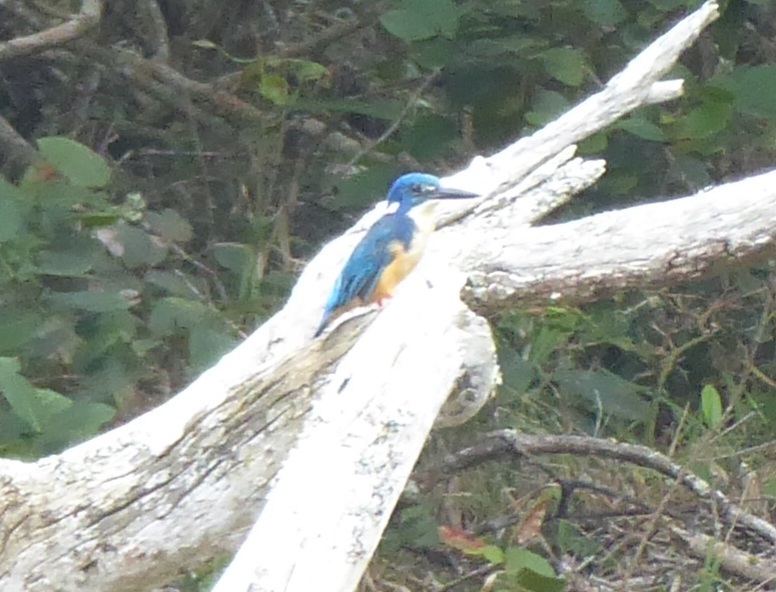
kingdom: Animalia
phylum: Chordata
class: Aves
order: Coraciiformes
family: Alcedinidae
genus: Alcedo
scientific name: Alcedo semitorquata
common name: Half-collared kingfisher
